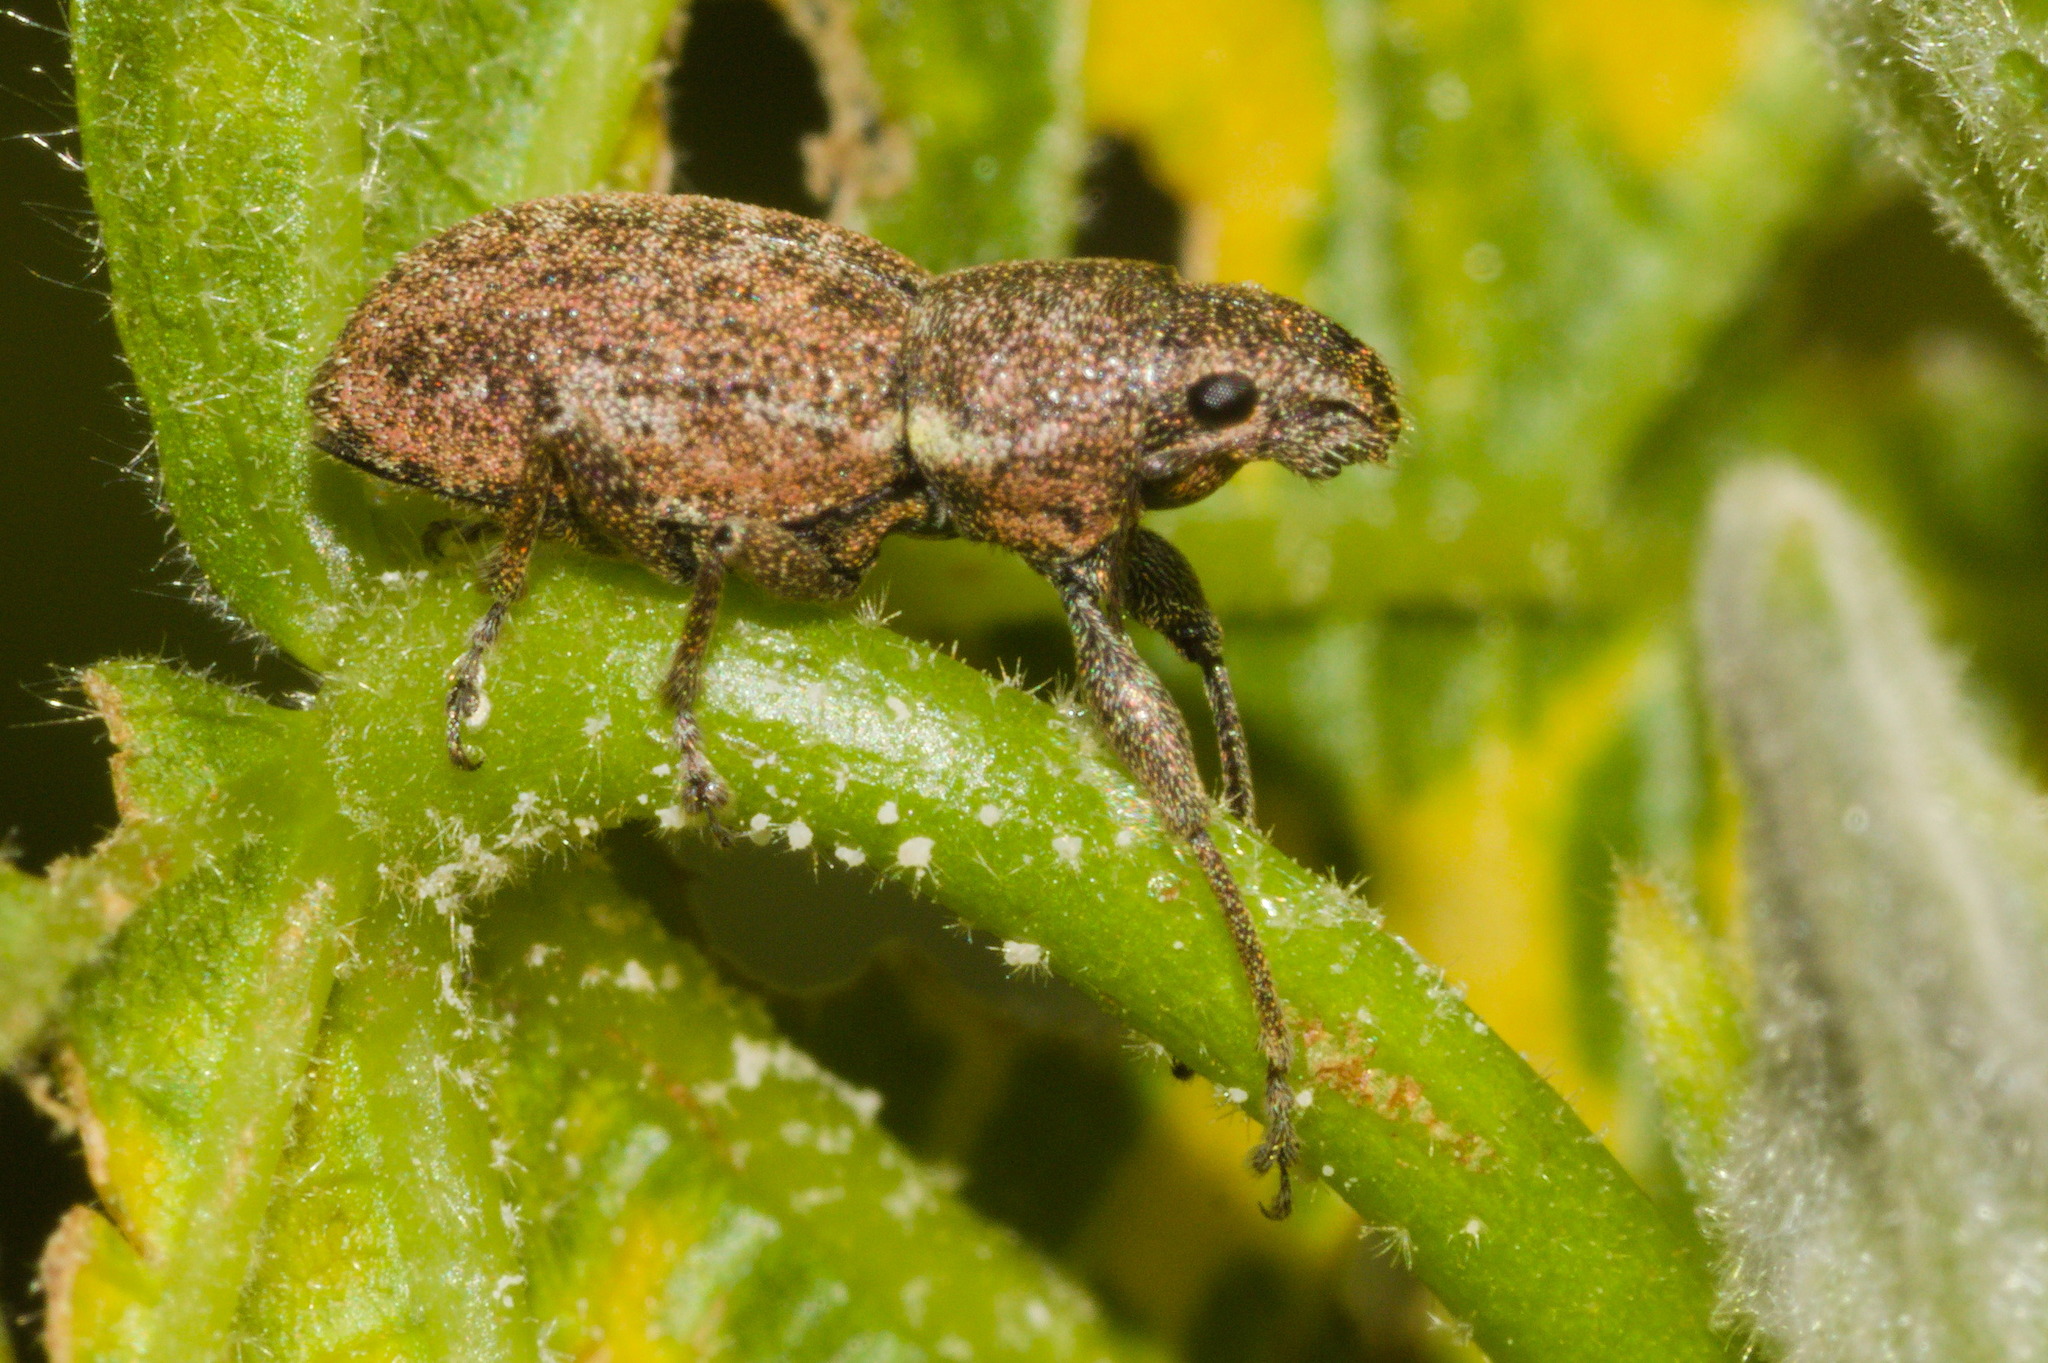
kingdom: Animalia
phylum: Arthropoda
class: Insecta
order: Coleoptera
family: Curculionidae
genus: Naupactus
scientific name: Naupactus cervinus
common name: Fuller rose beetle
